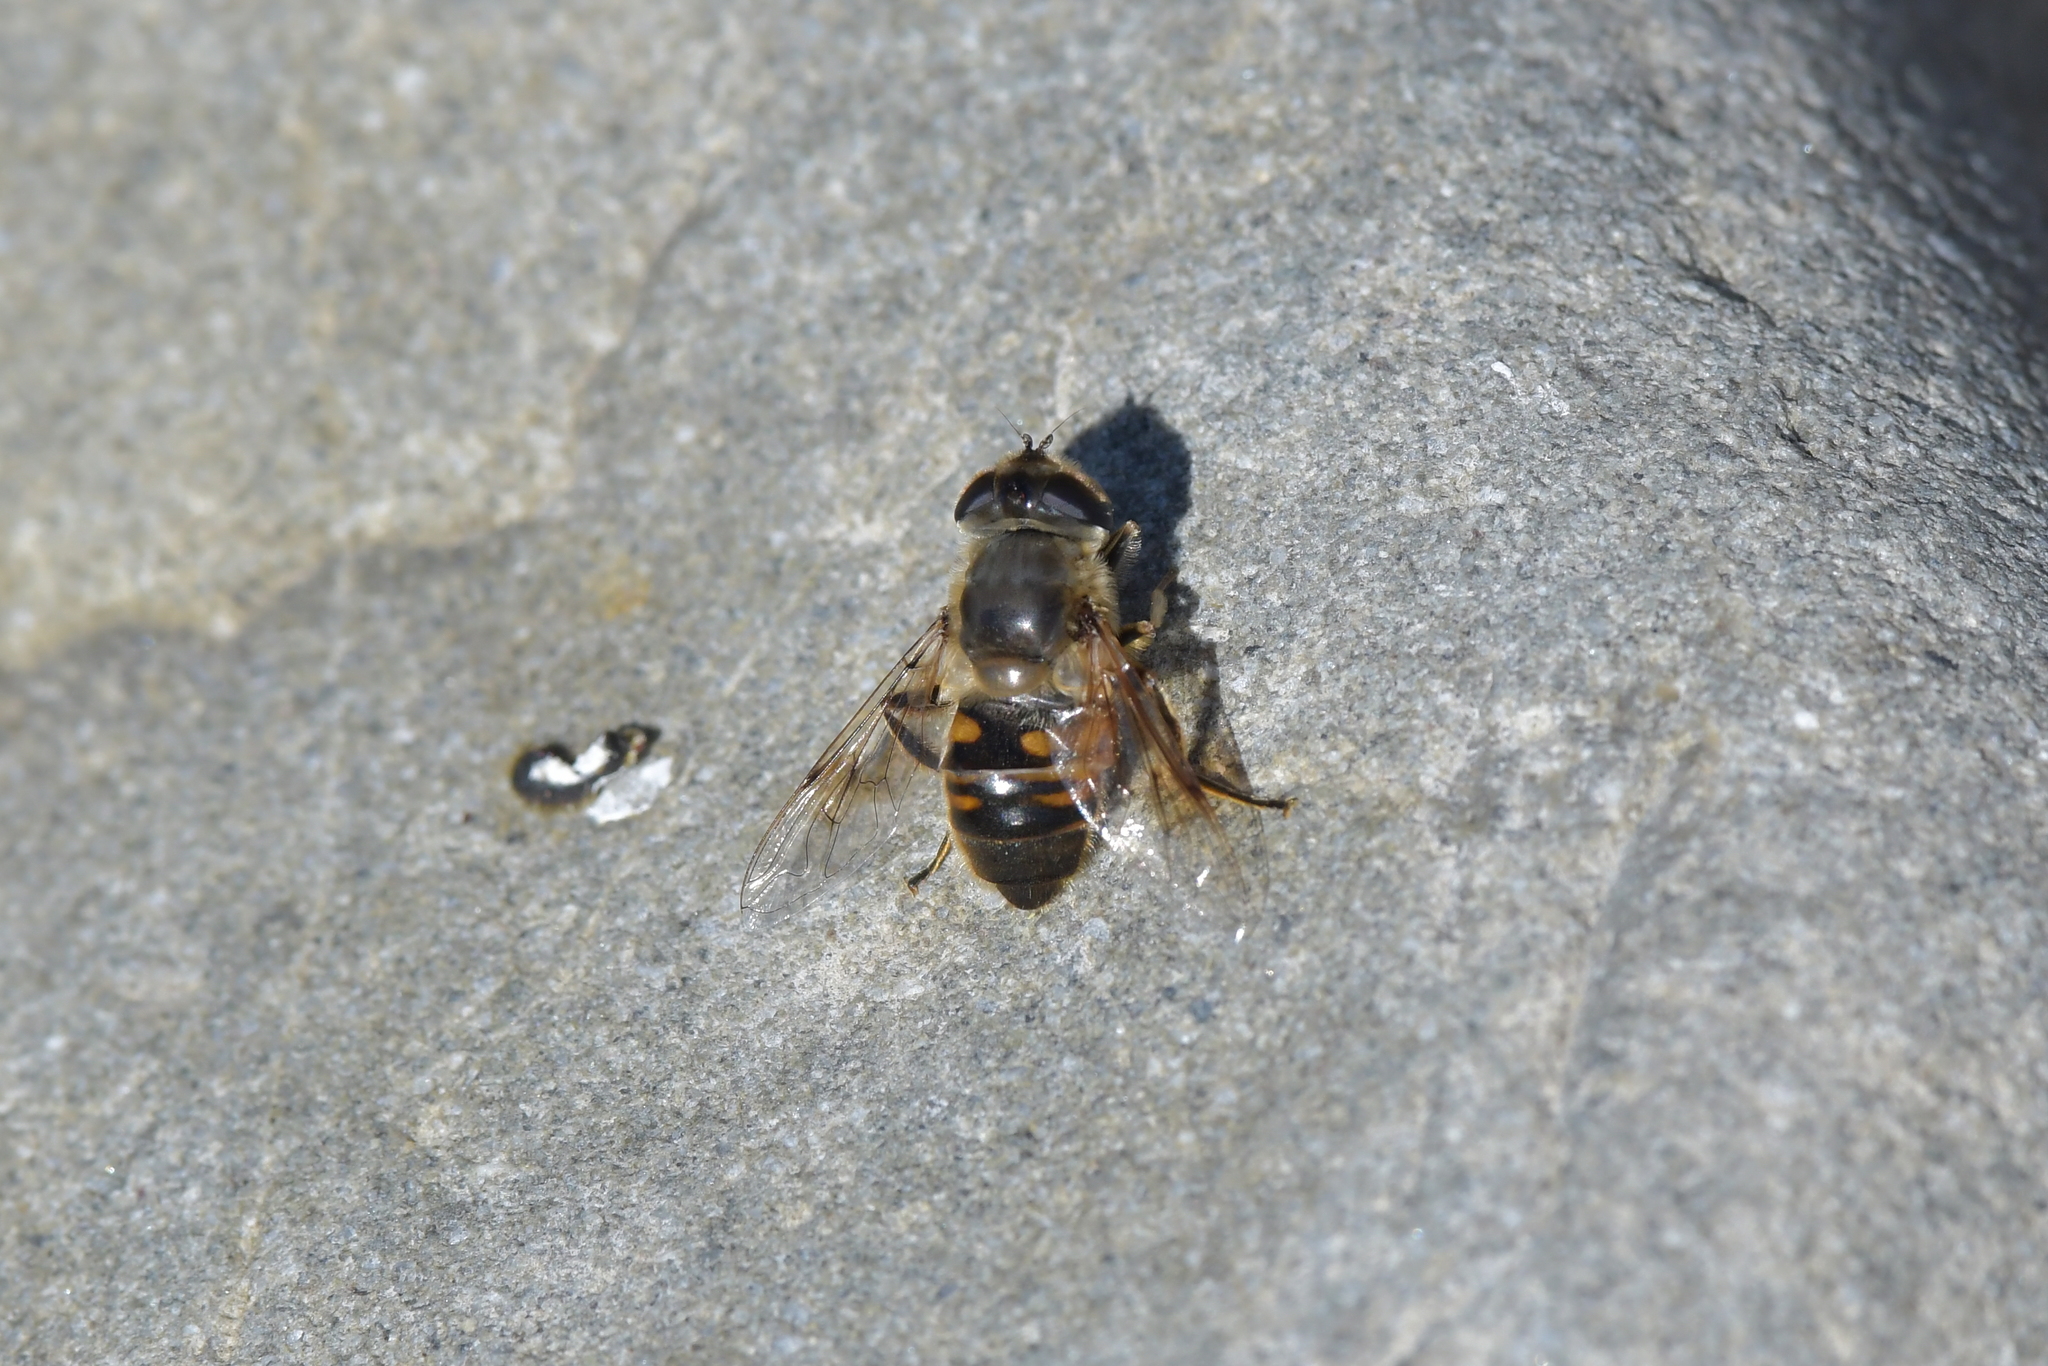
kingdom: Animalia
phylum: Arthropoda
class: Insecta
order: Diptera
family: Syrphidae
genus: Eristalis
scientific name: Eristalis tenax
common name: Drone fly
